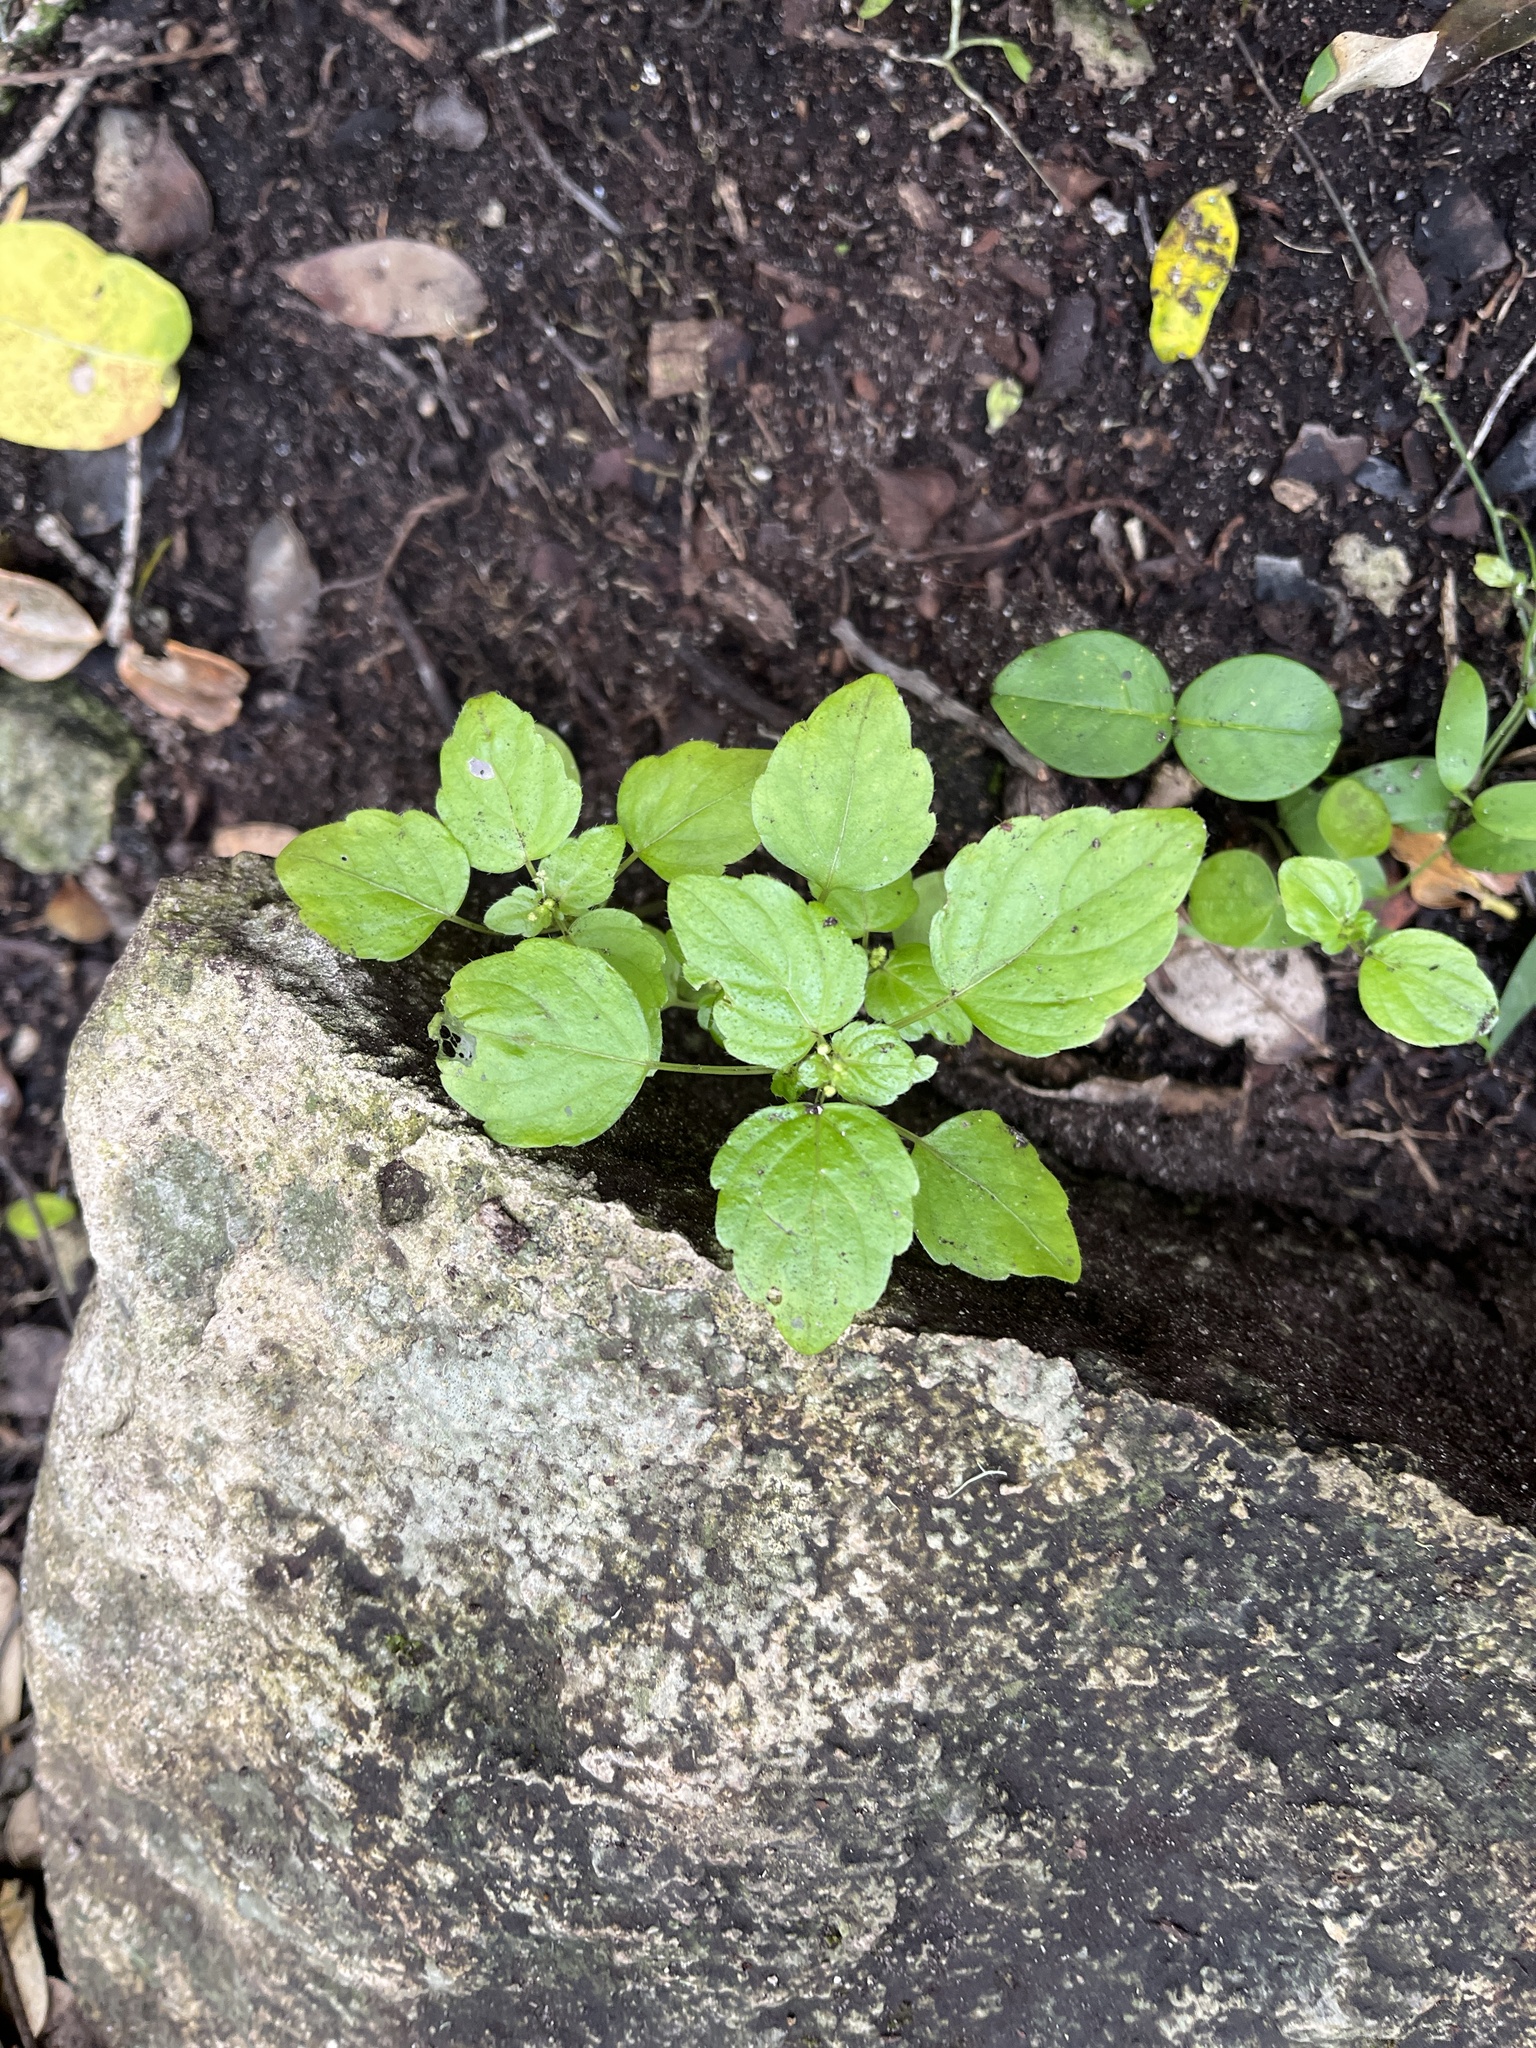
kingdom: Plantae
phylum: Tracheophyta
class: Magnoliopsida
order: Malpighiales
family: Euphorbiaceae
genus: Leidesia
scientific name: Leidesia procumbens
